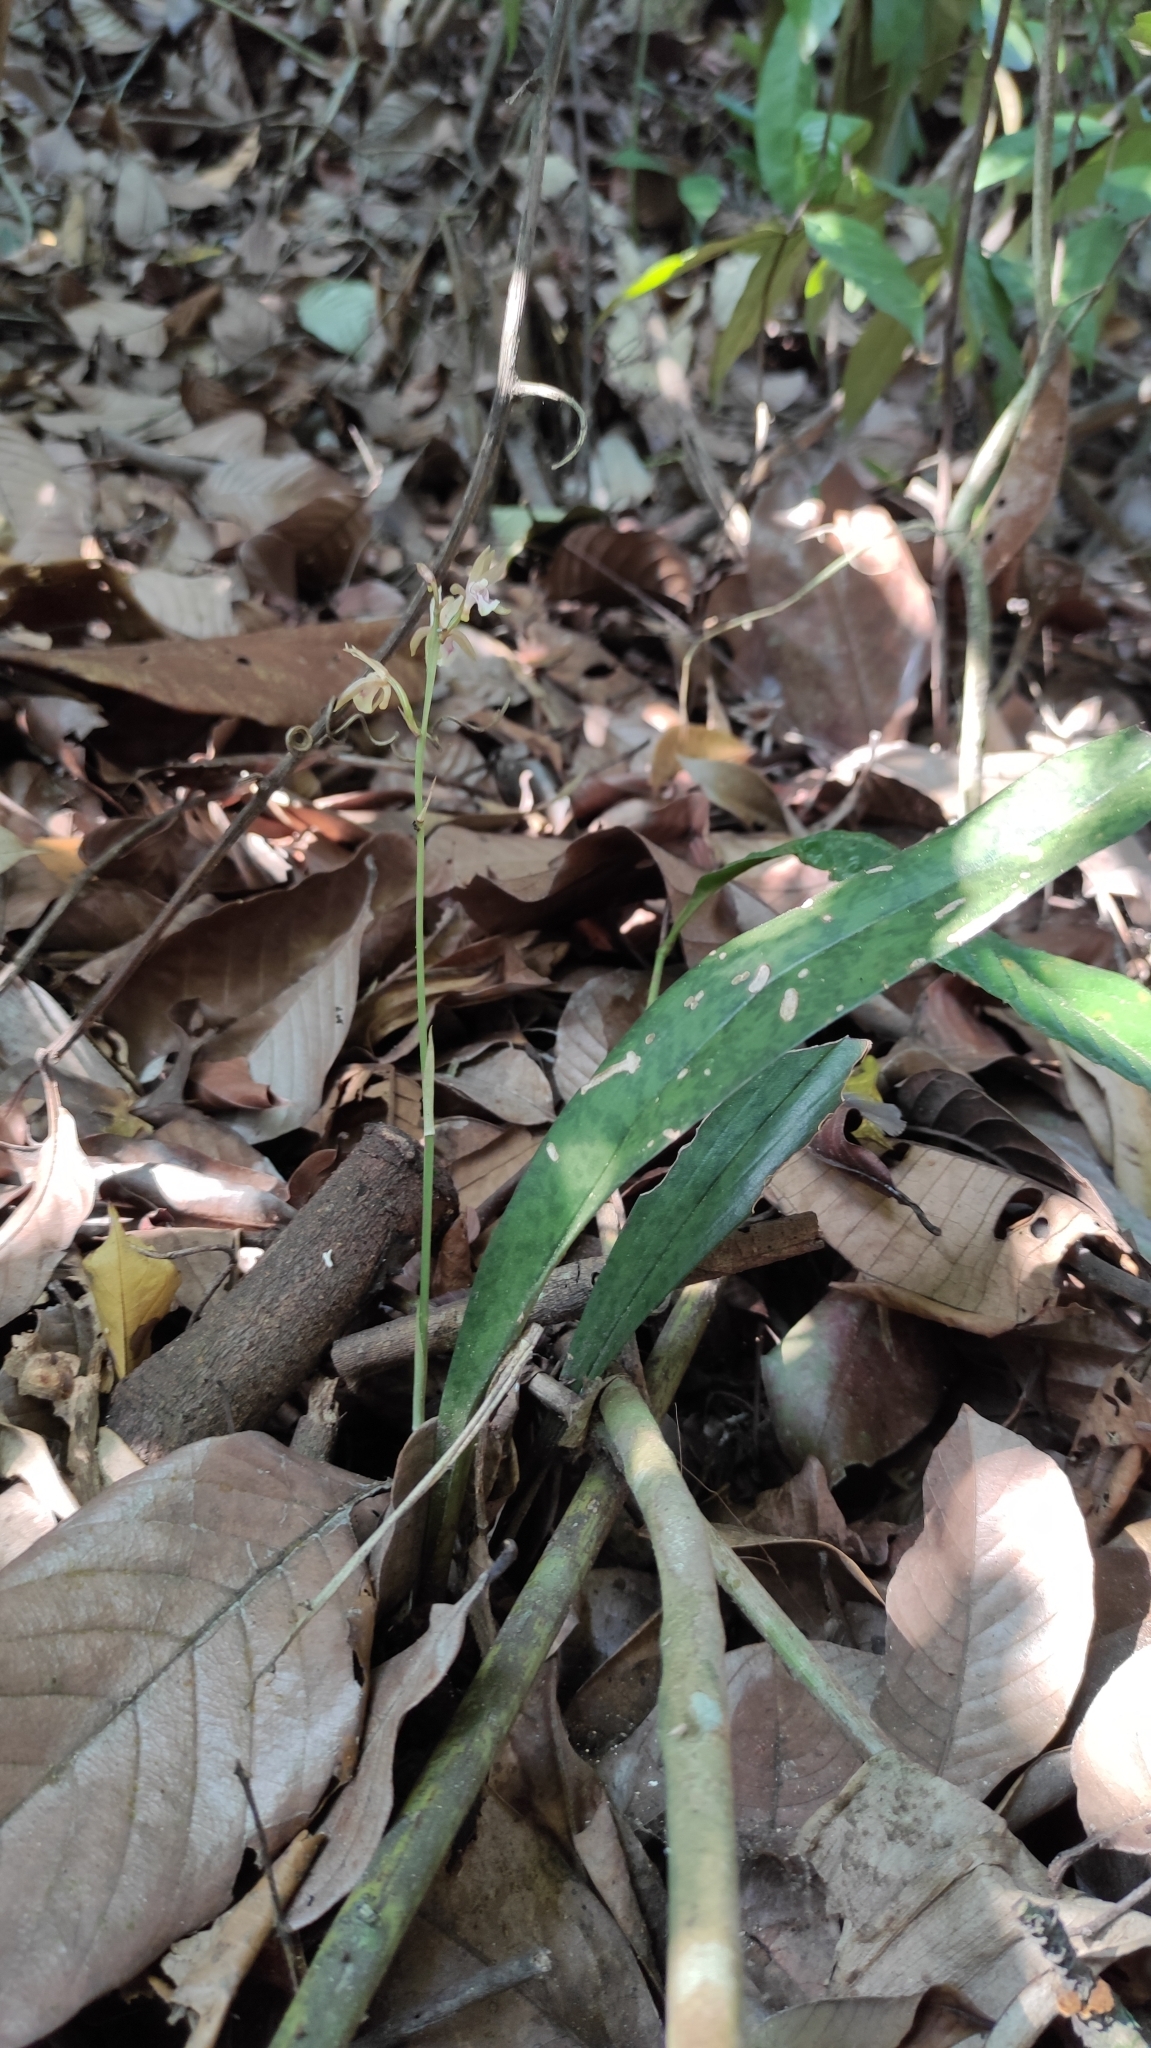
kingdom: Plantae
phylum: Tracheophyta
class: Liliopsida
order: Asparagales
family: Orchidaceae
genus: Eulophia
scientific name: Eulophia maculata
